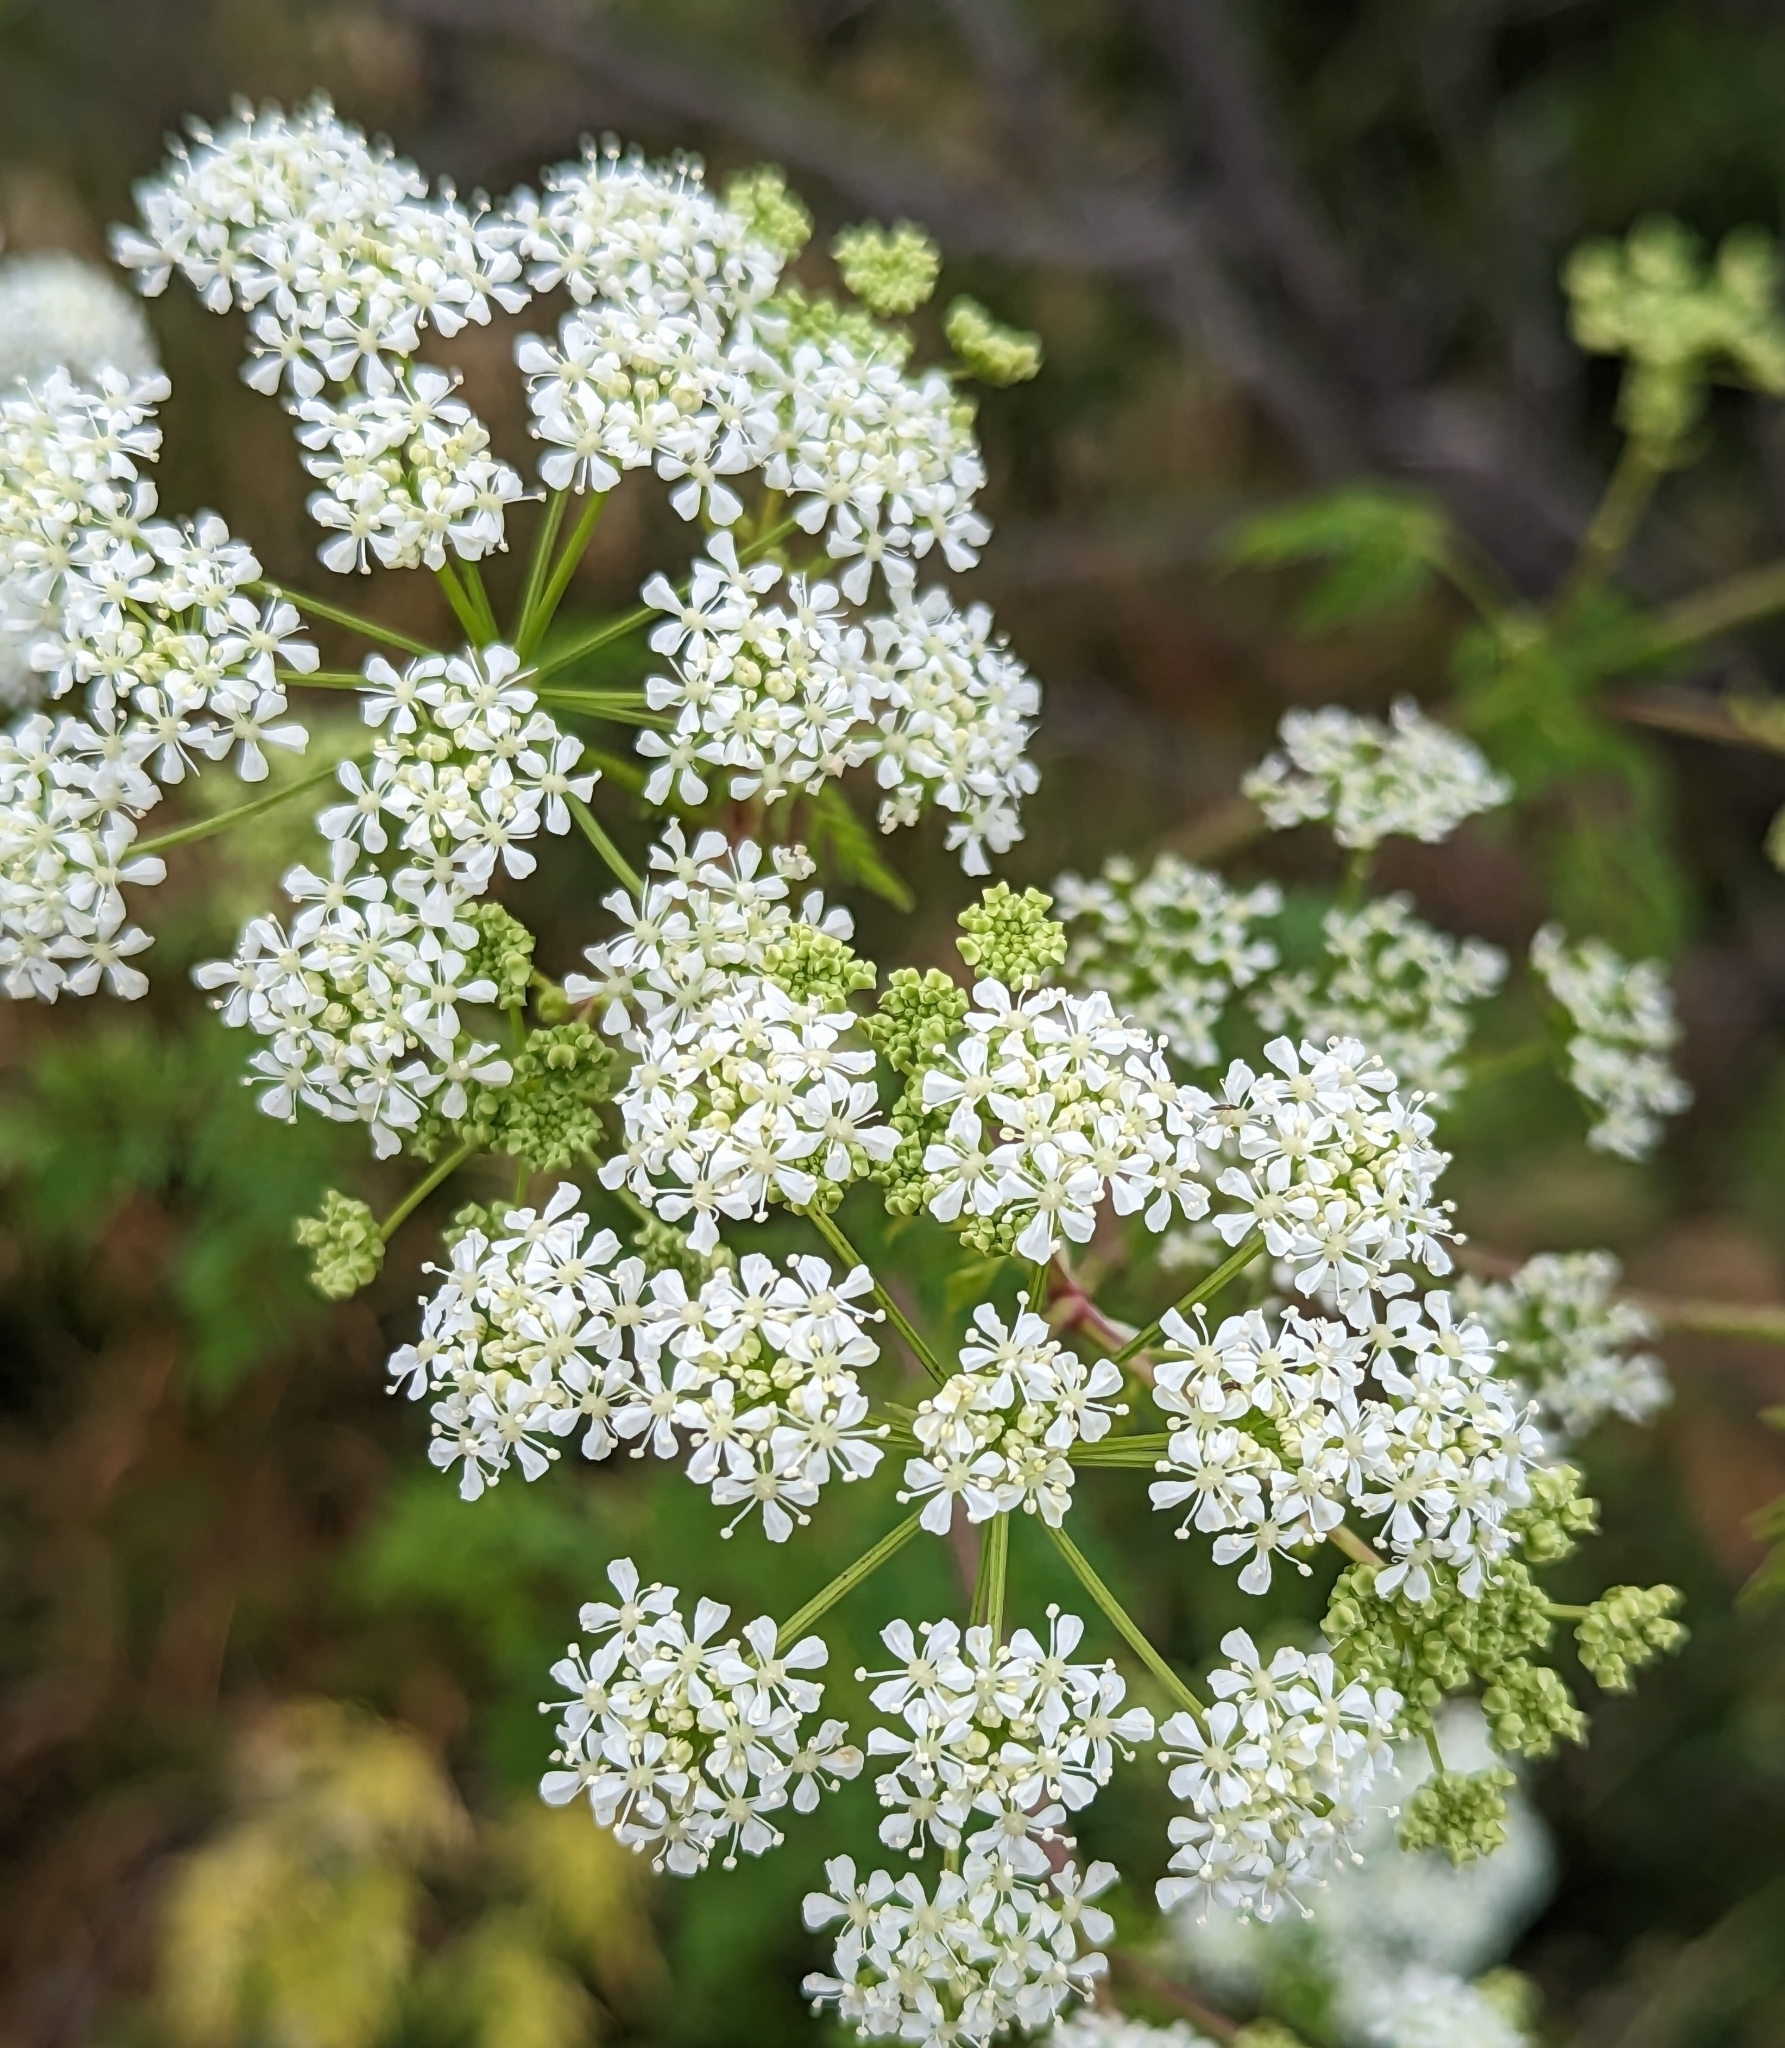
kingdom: Plantae
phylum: Tracheophyta
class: Magnoliopsida
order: Apiales
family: Apiaceae
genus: Conium
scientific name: Conium maculatum
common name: Hemlock
